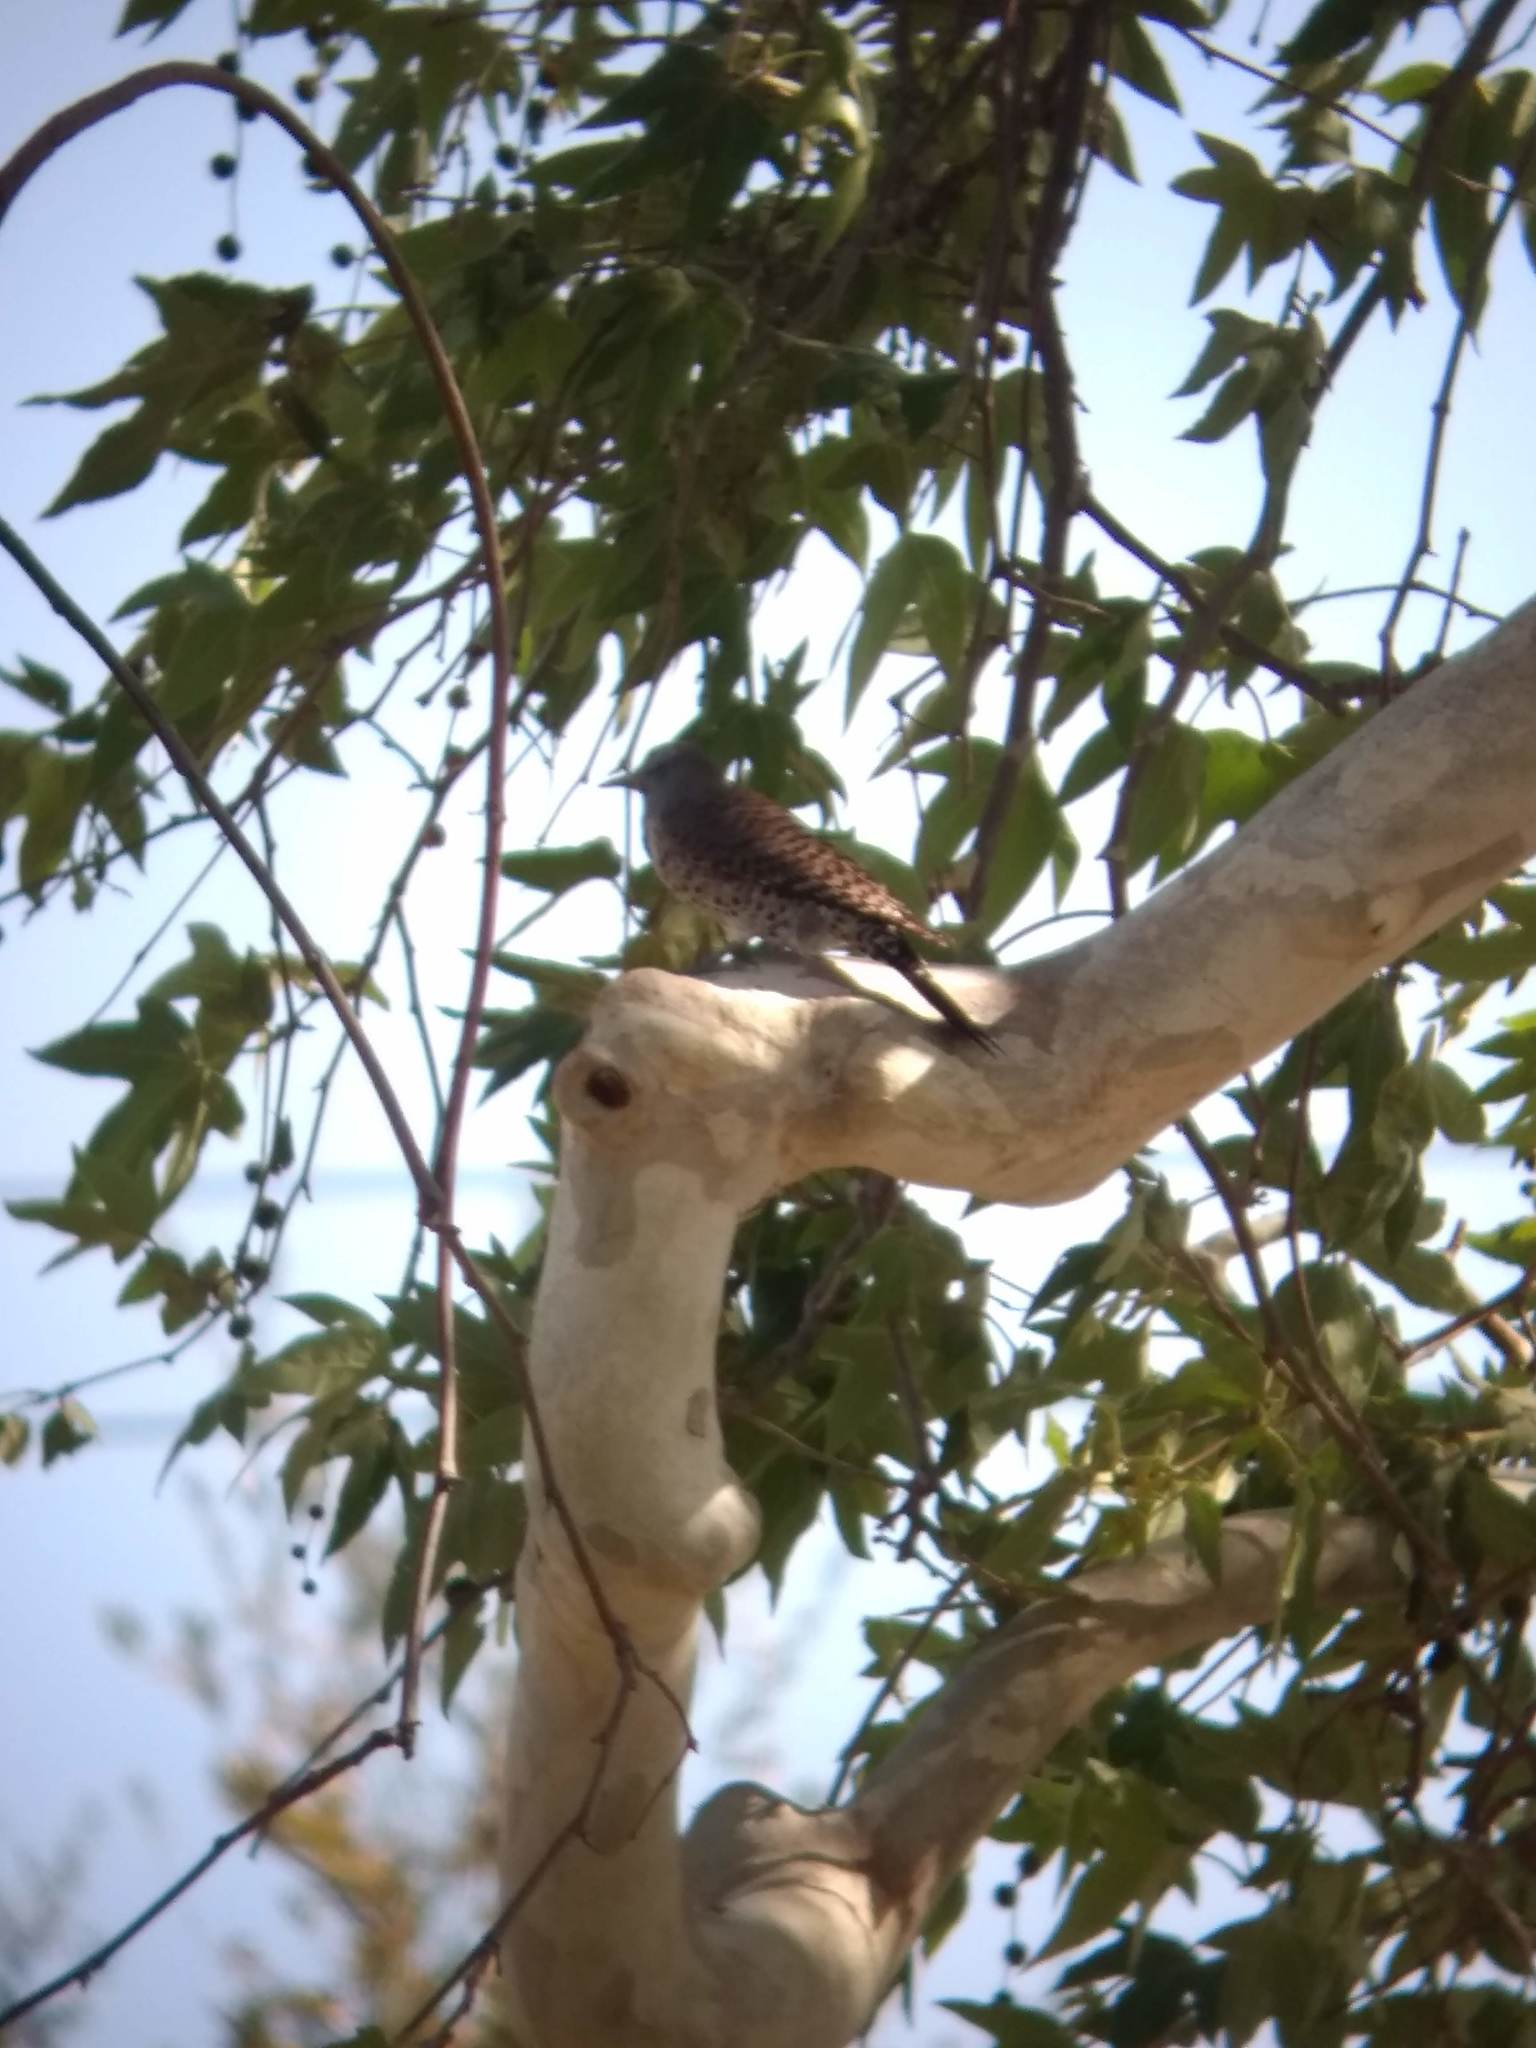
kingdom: Animalia
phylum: Chordata
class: Aves
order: Piciformes
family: Picidae
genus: Colaptes
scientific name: Colaptes auratus
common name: Northern flicker
